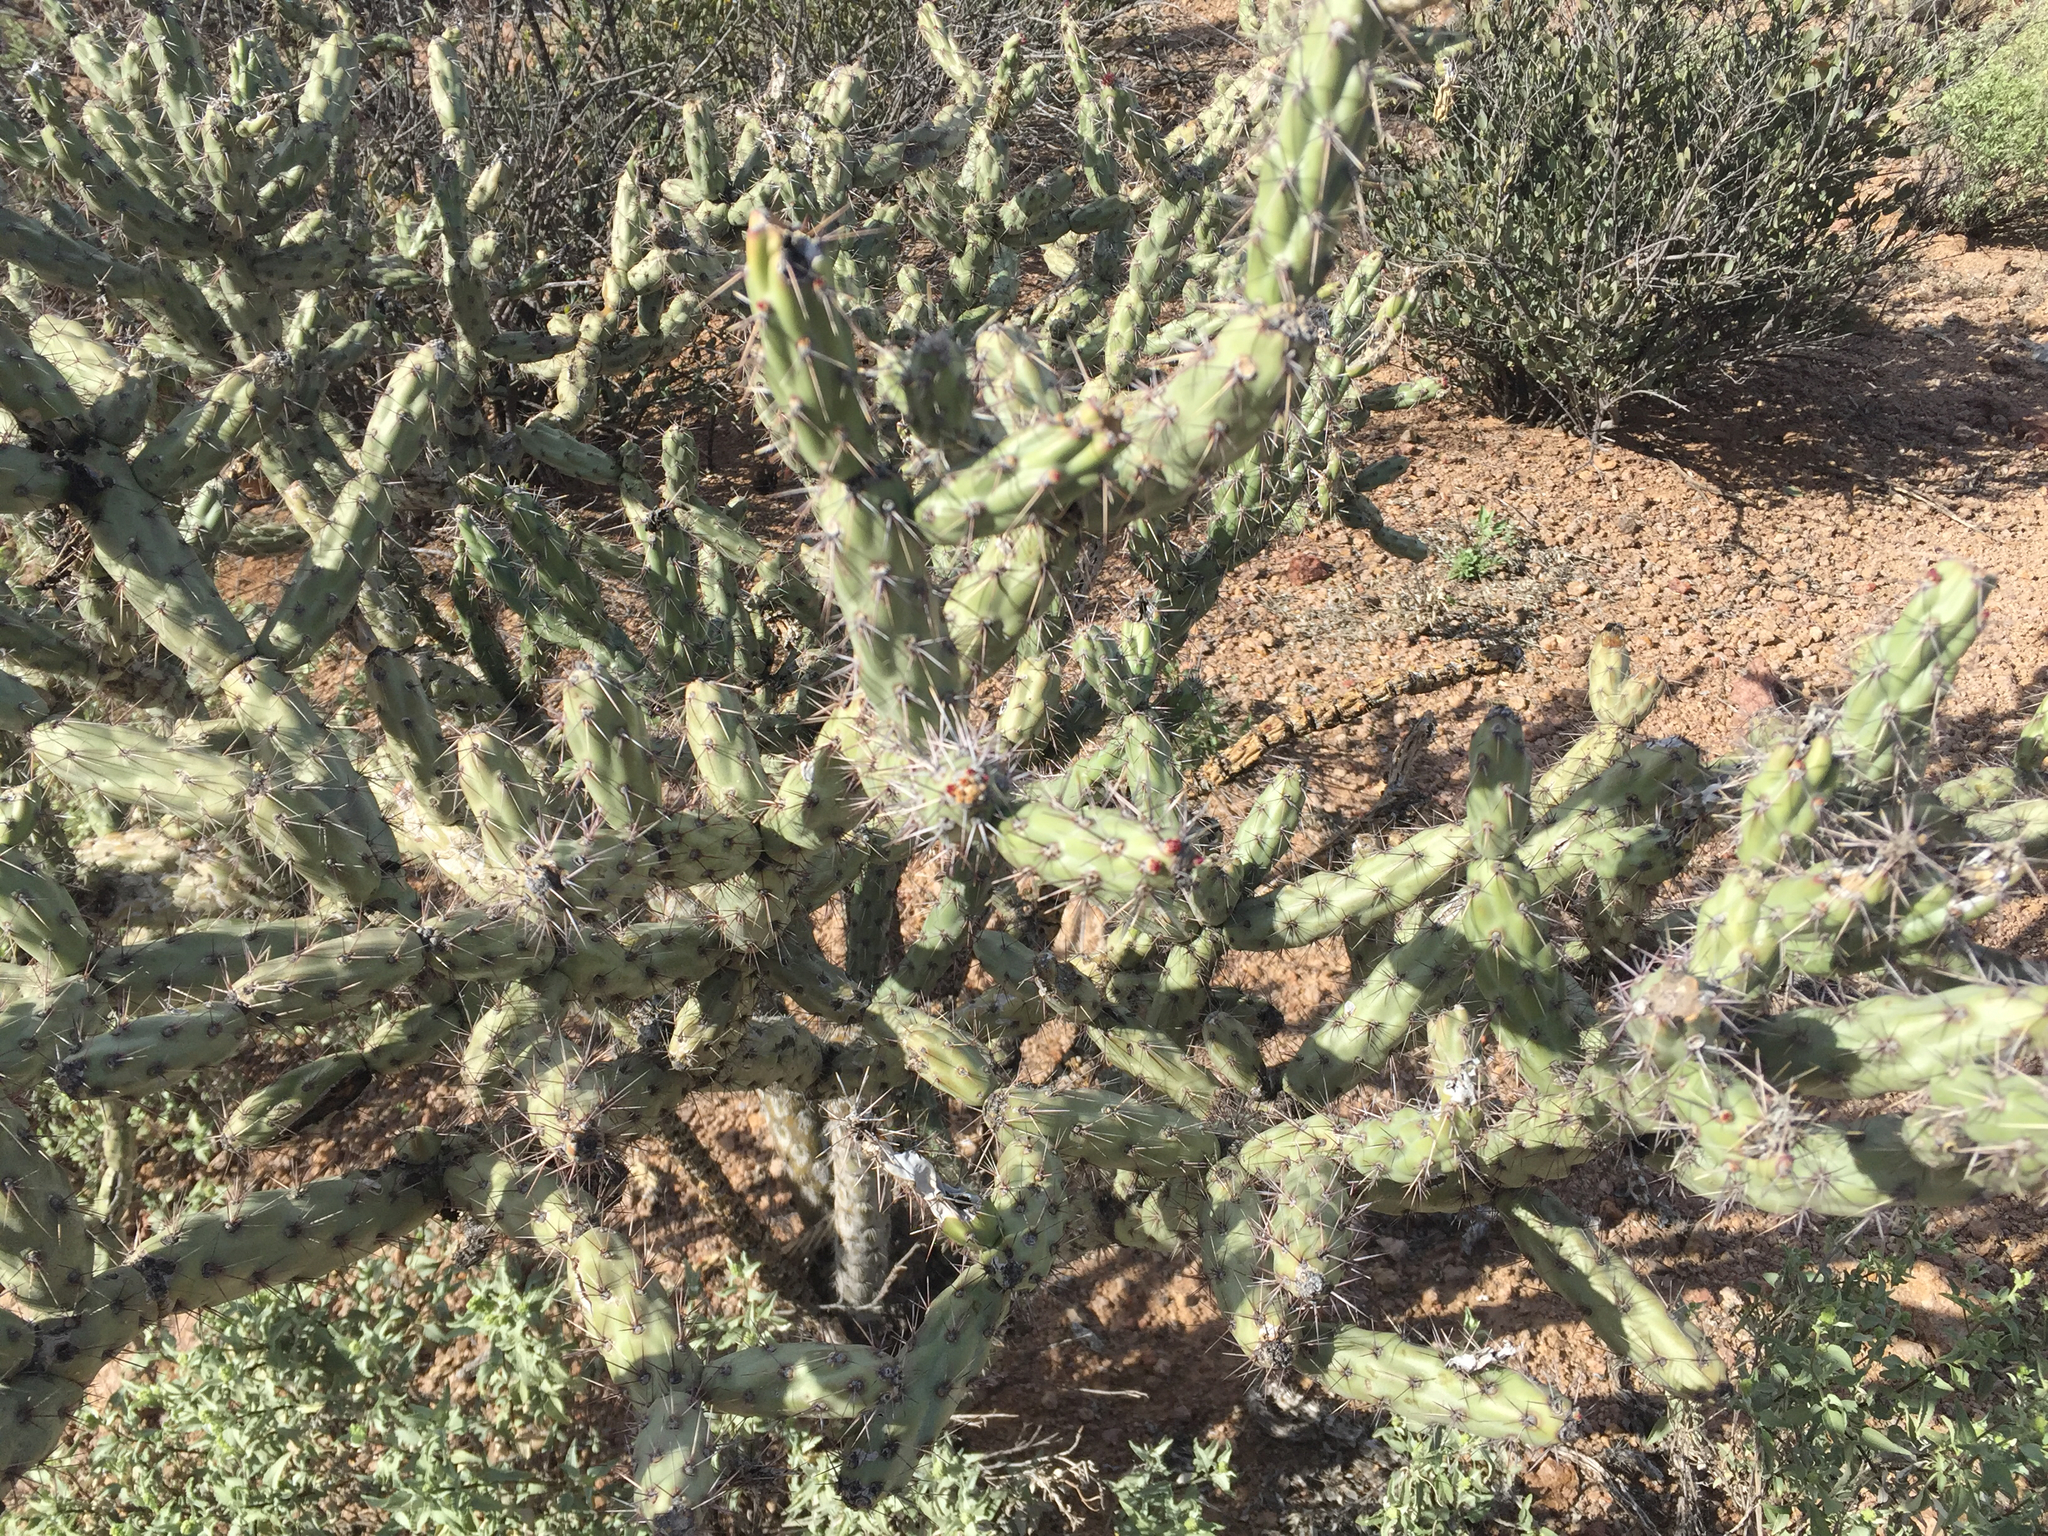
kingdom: Plantae
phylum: Tracheophyta
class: Magnoliopsida
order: Caryophyllales
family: Cactaceae
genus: Cylindropuntia
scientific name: Cylindropuntia acanthocarpa
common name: Buckhorn cholla
